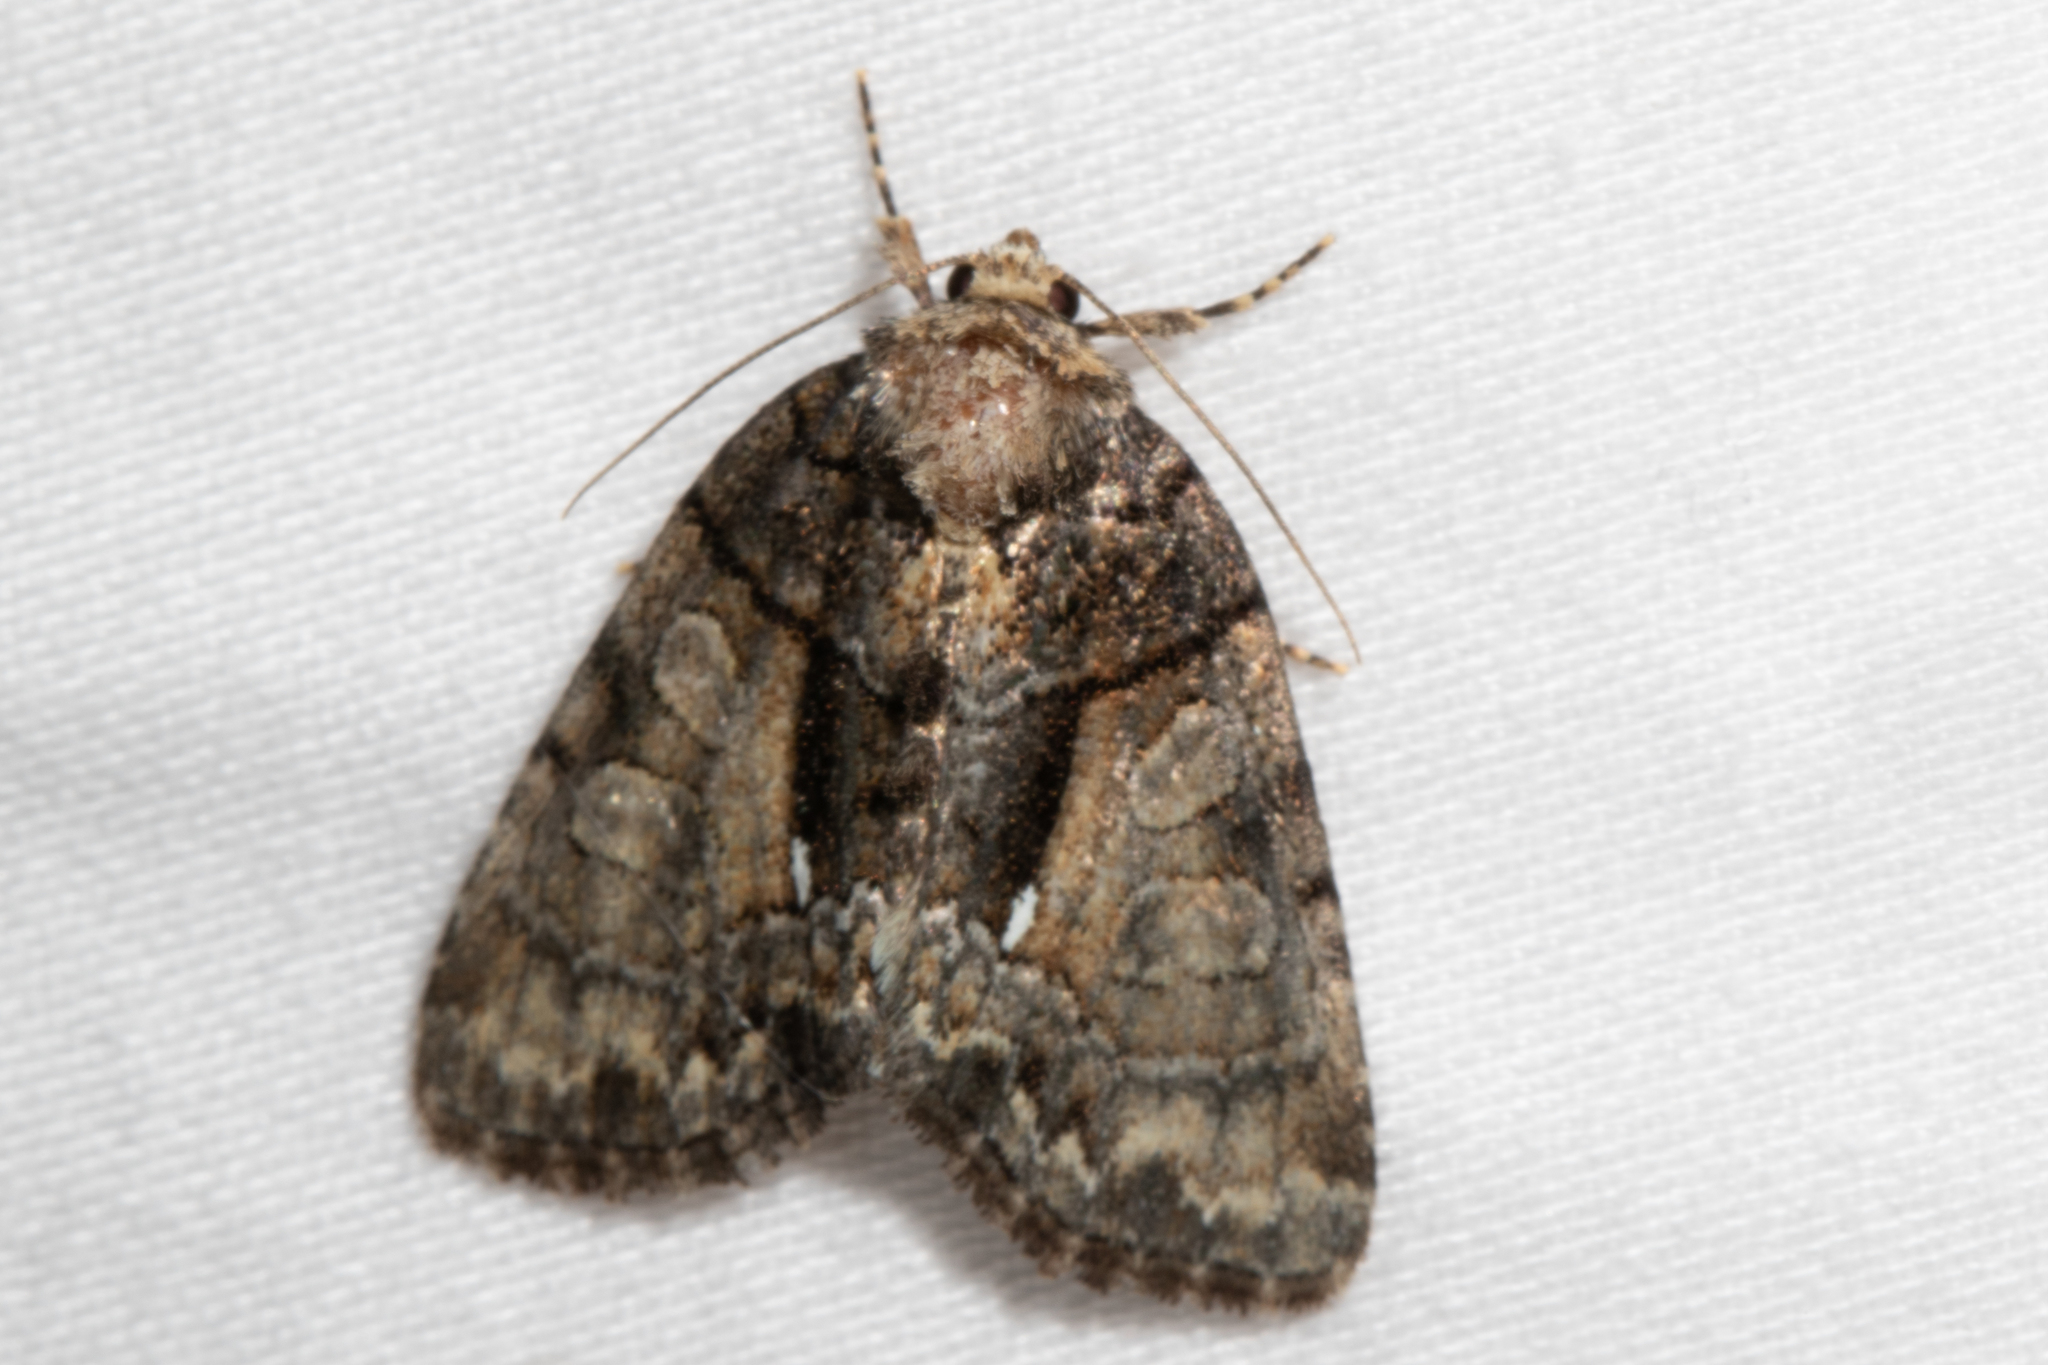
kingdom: Animalia
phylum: Arthropoda
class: Insecta
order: Lepidoptera
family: Noctuidae
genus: Chytonix
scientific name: Chytonix palliatricula
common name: Cloaked marvel
